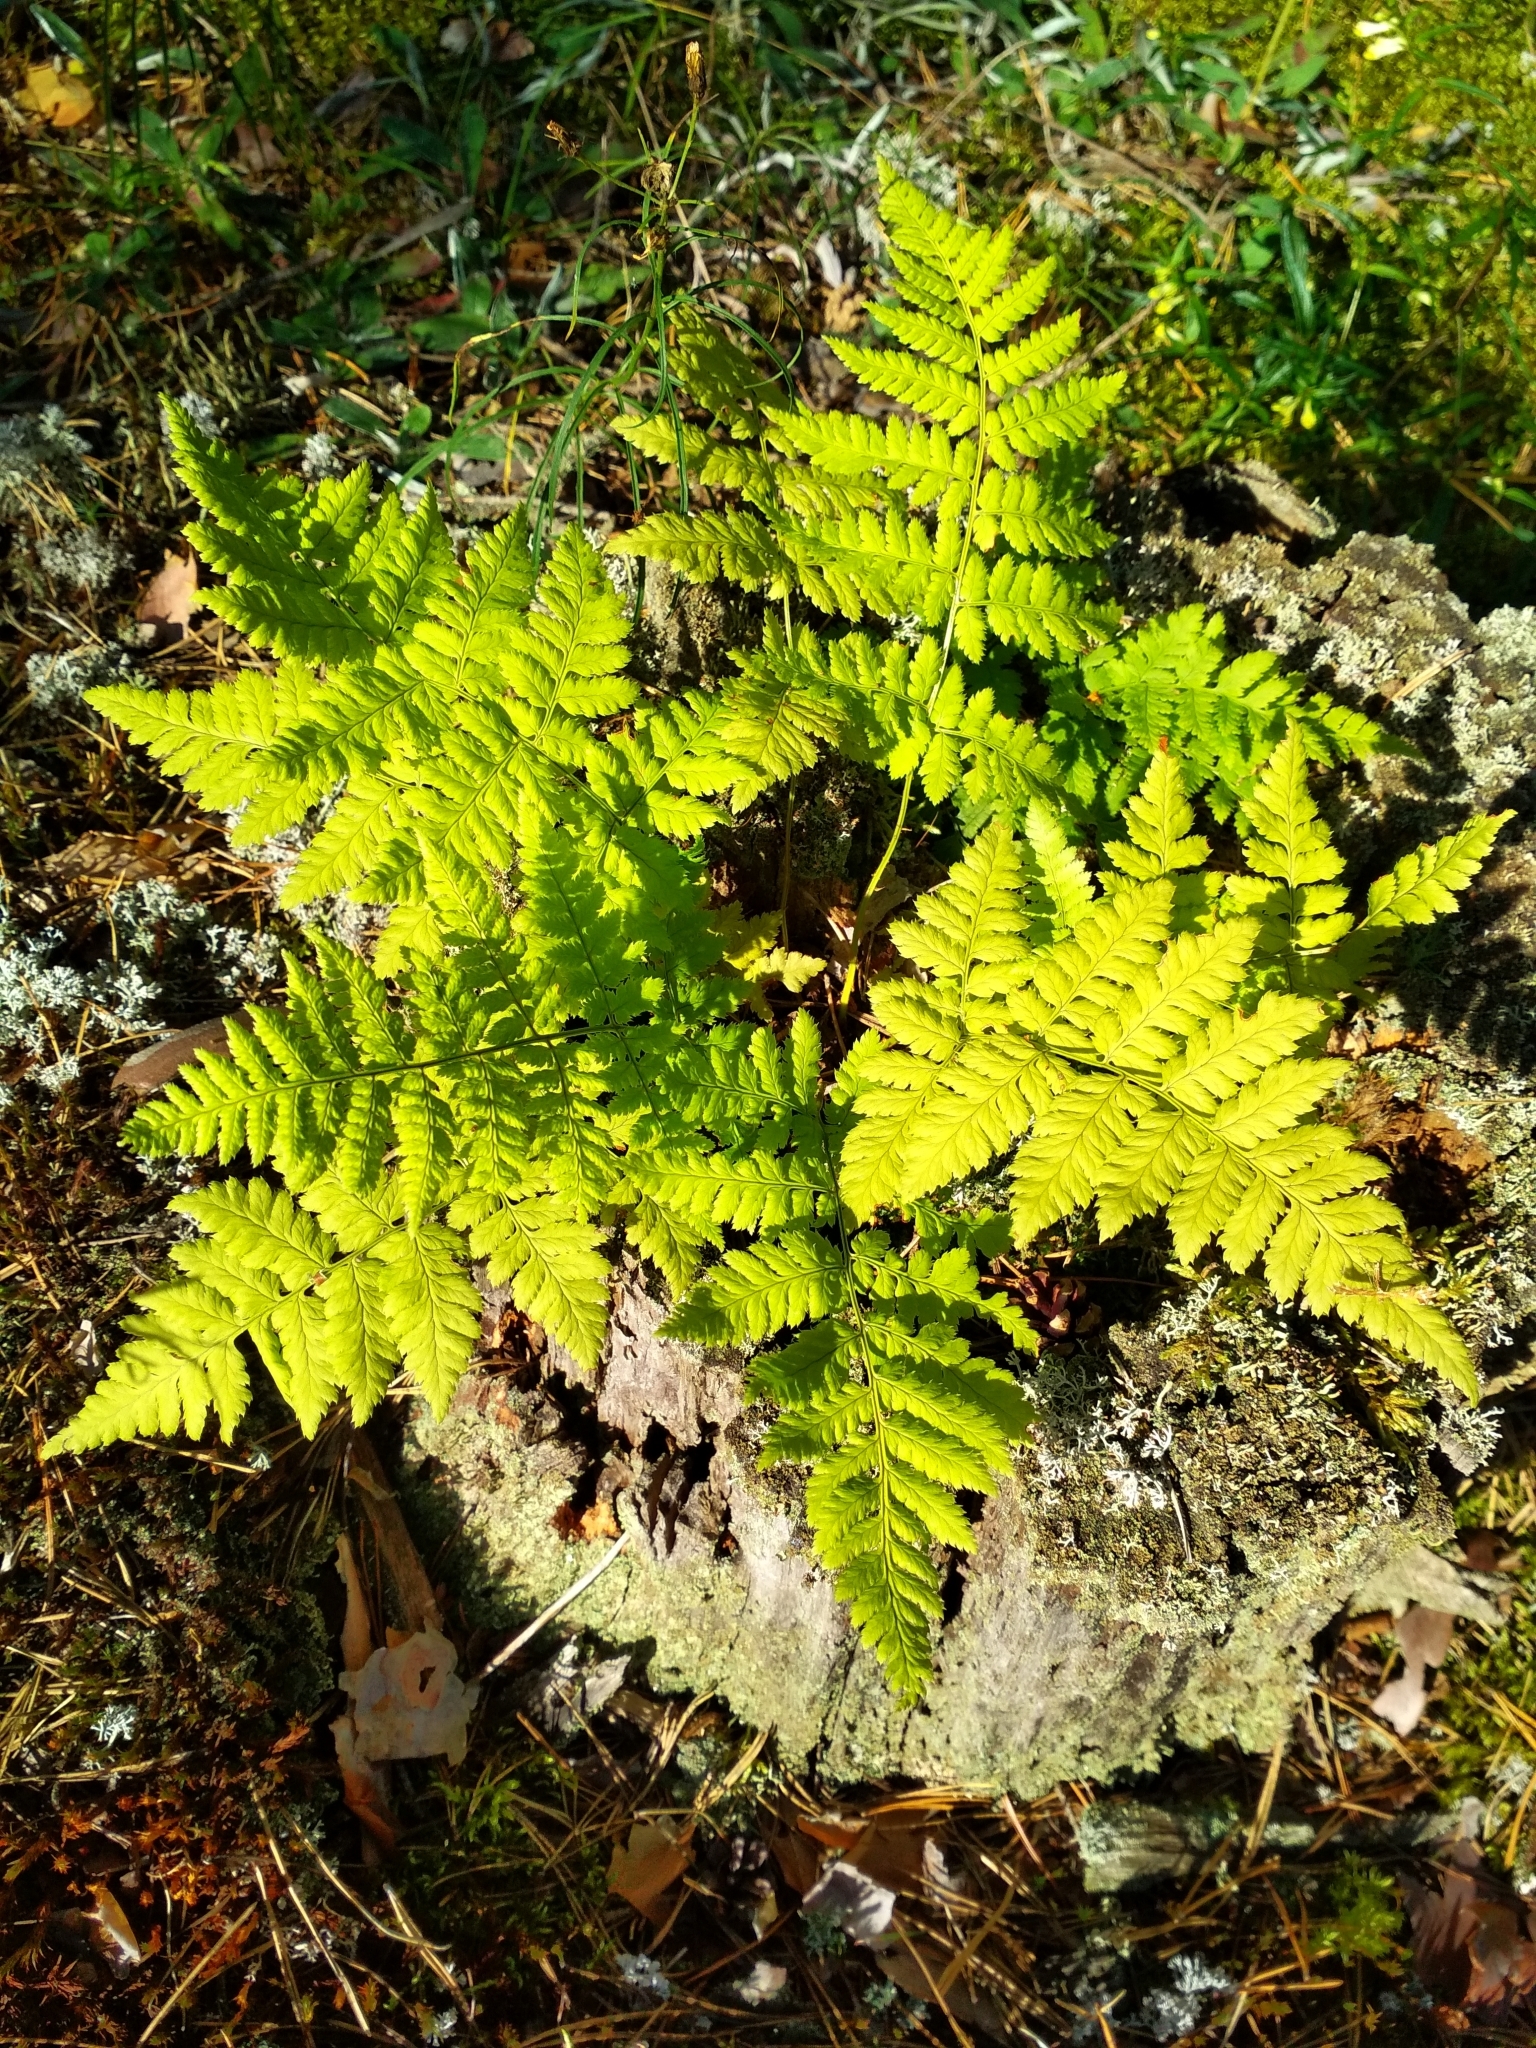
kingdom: Plantae
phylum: Tracheophyta
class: Polypodiopsida
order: Polypodiales
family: Dryopteridaceae
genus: Dryopteris
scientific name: Dryopteris carthusiana
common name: Narrow buckler-fern
